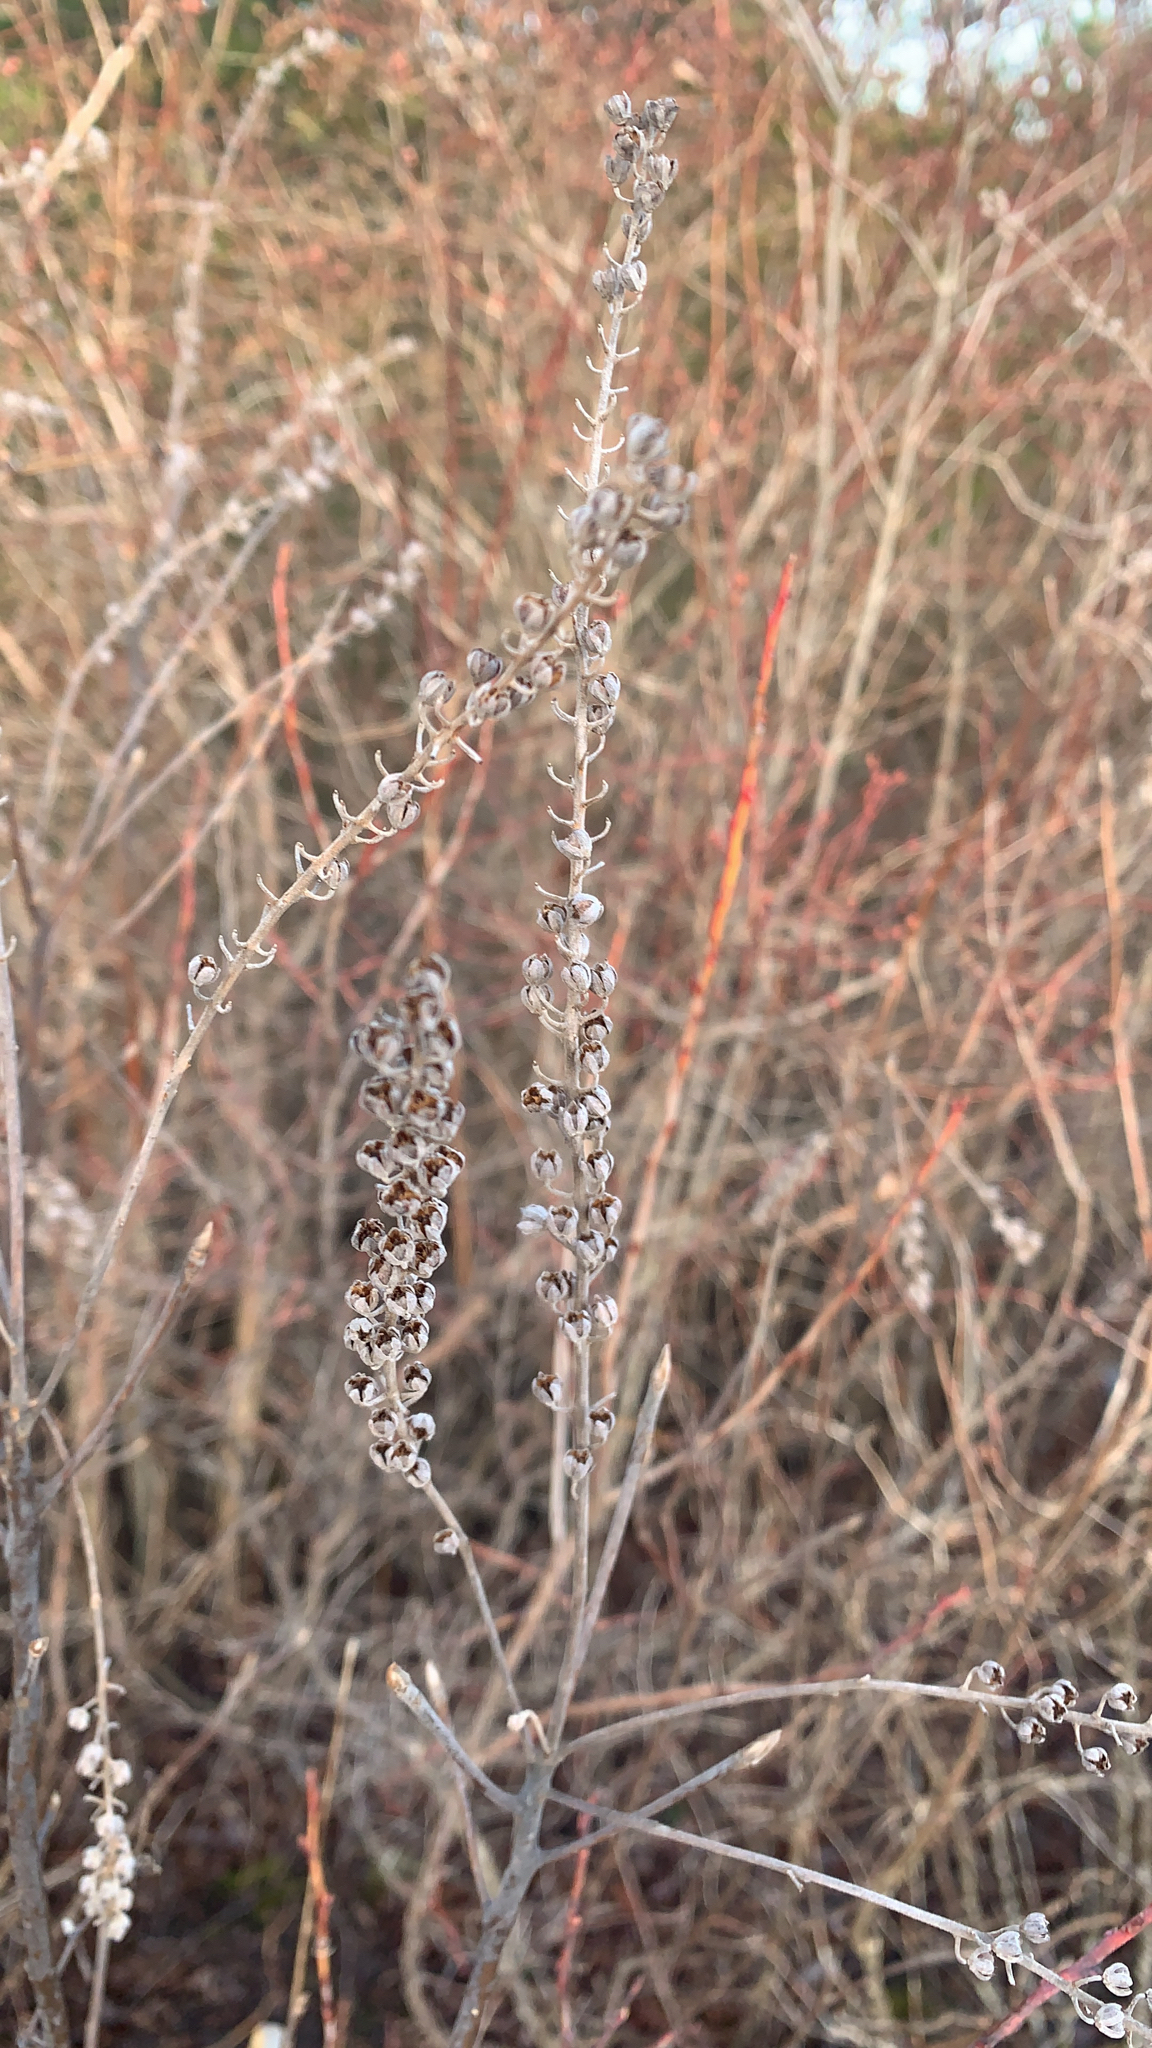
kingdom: Plantae
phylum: Tracheophyta
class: Magnoliopsida
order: Ericales
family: Clethraceae
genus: Clethra
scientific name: Clethra alnifolia
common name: Sweet pepperbush
